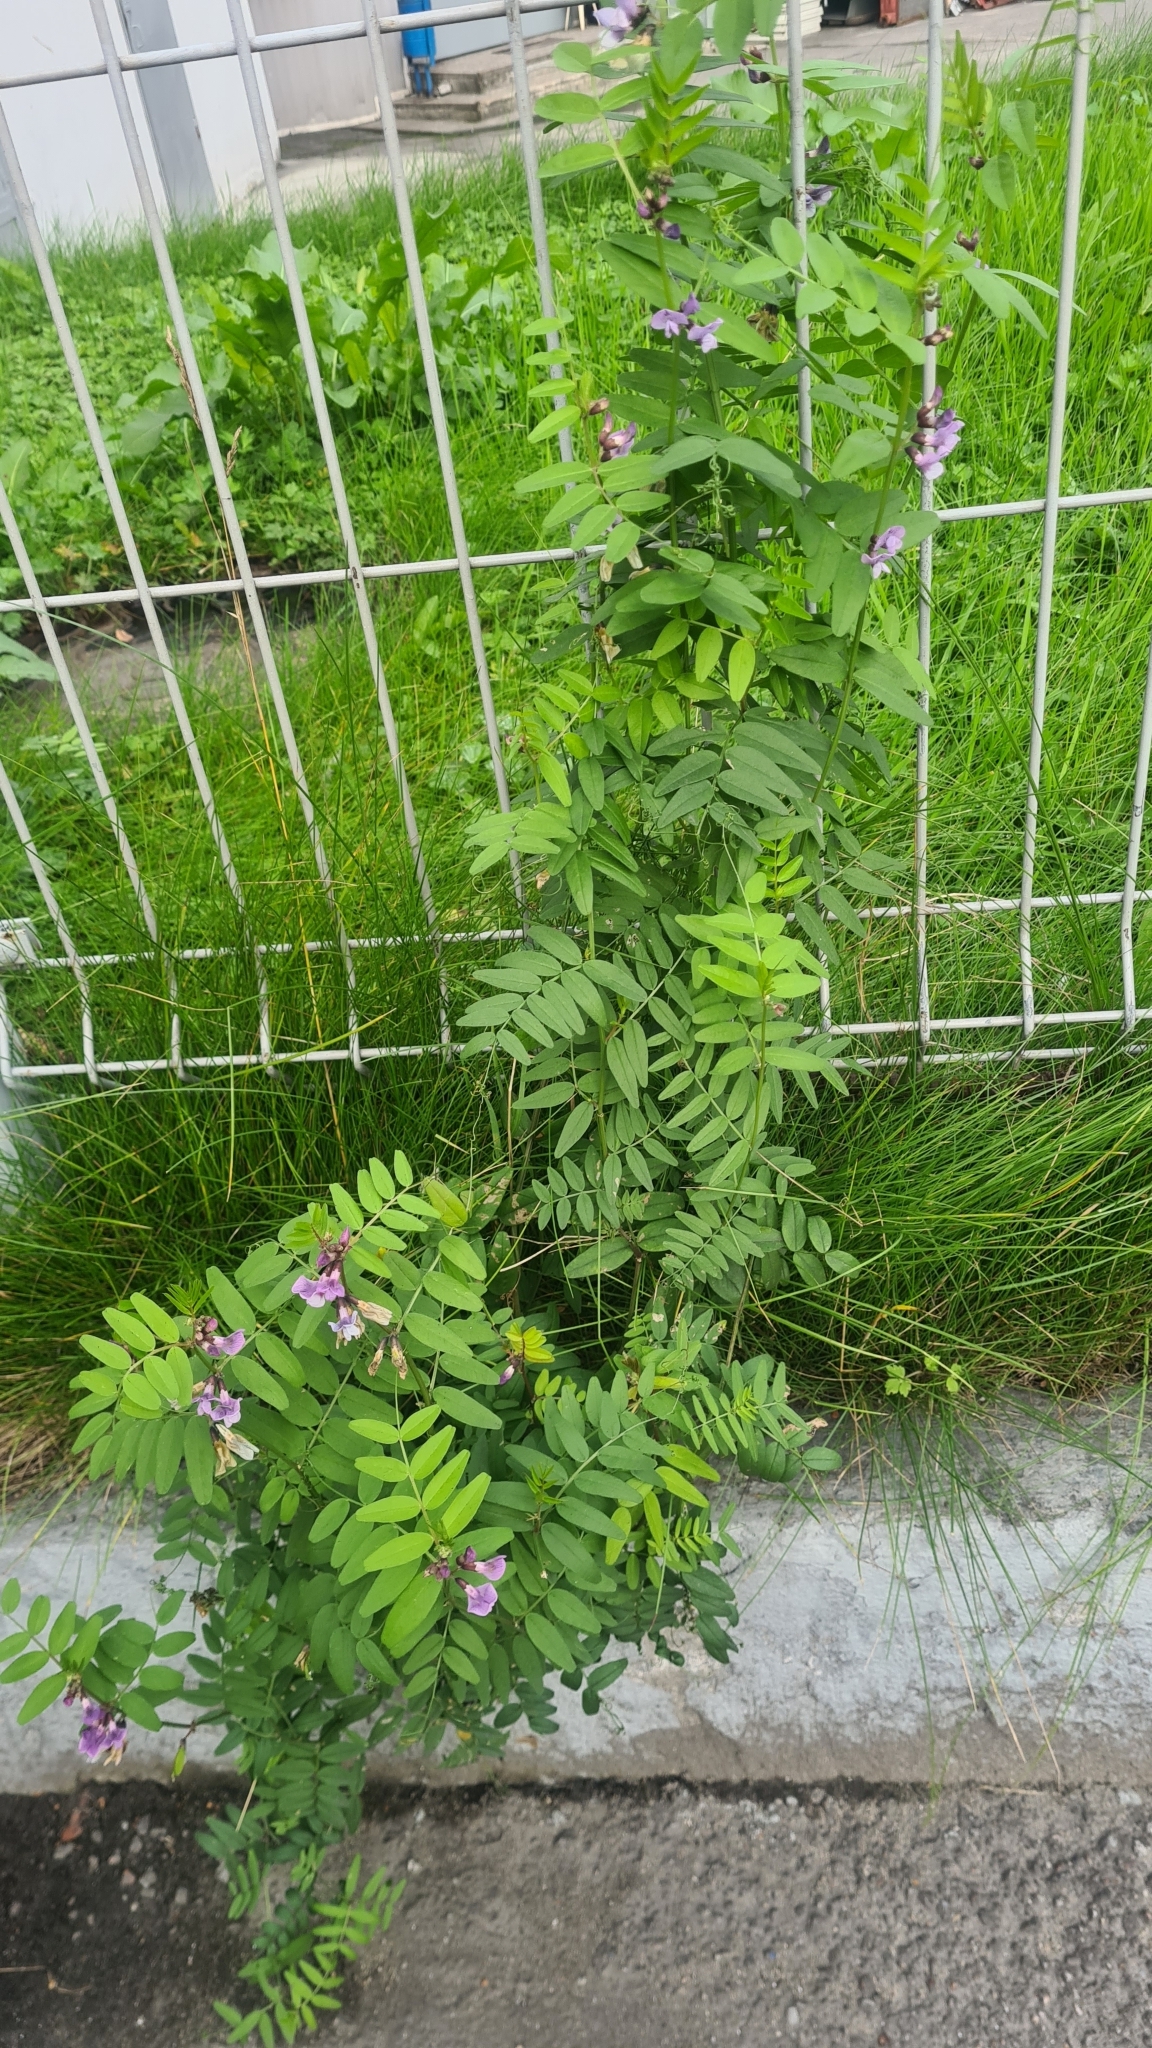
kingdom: Plantae
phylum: Tracheophyta
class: Magnoliopsida
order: Fabales
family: Fabaceae
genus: Vicia
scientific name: Vicia sepium
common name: Bush vetch
